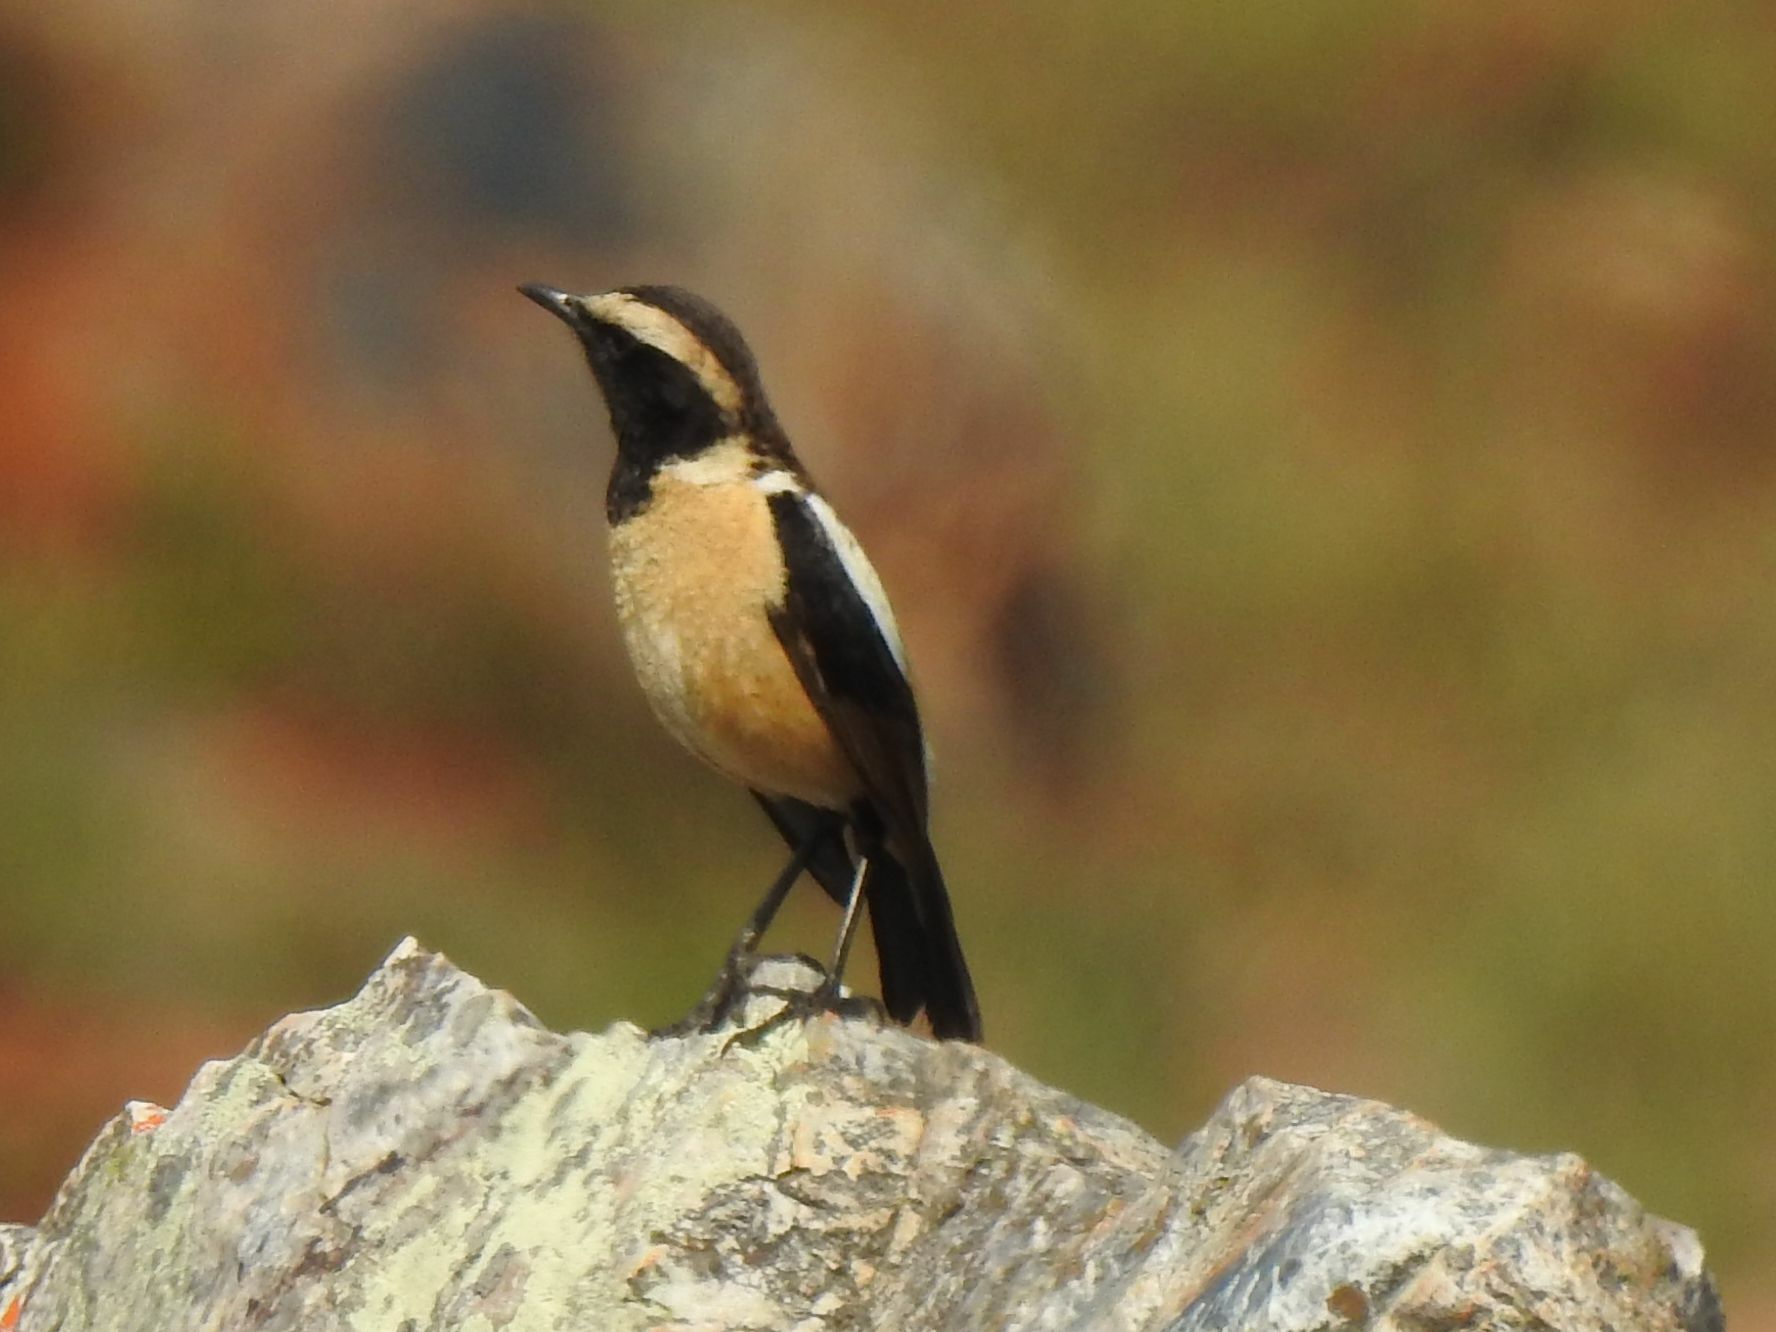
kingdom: Animalia
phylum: Chordata
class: Aves
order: Passeriformes
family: Muscicapidae
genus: Campicoloides
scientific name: Campicoloides bifasciatus
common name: Buff-streaked chat
